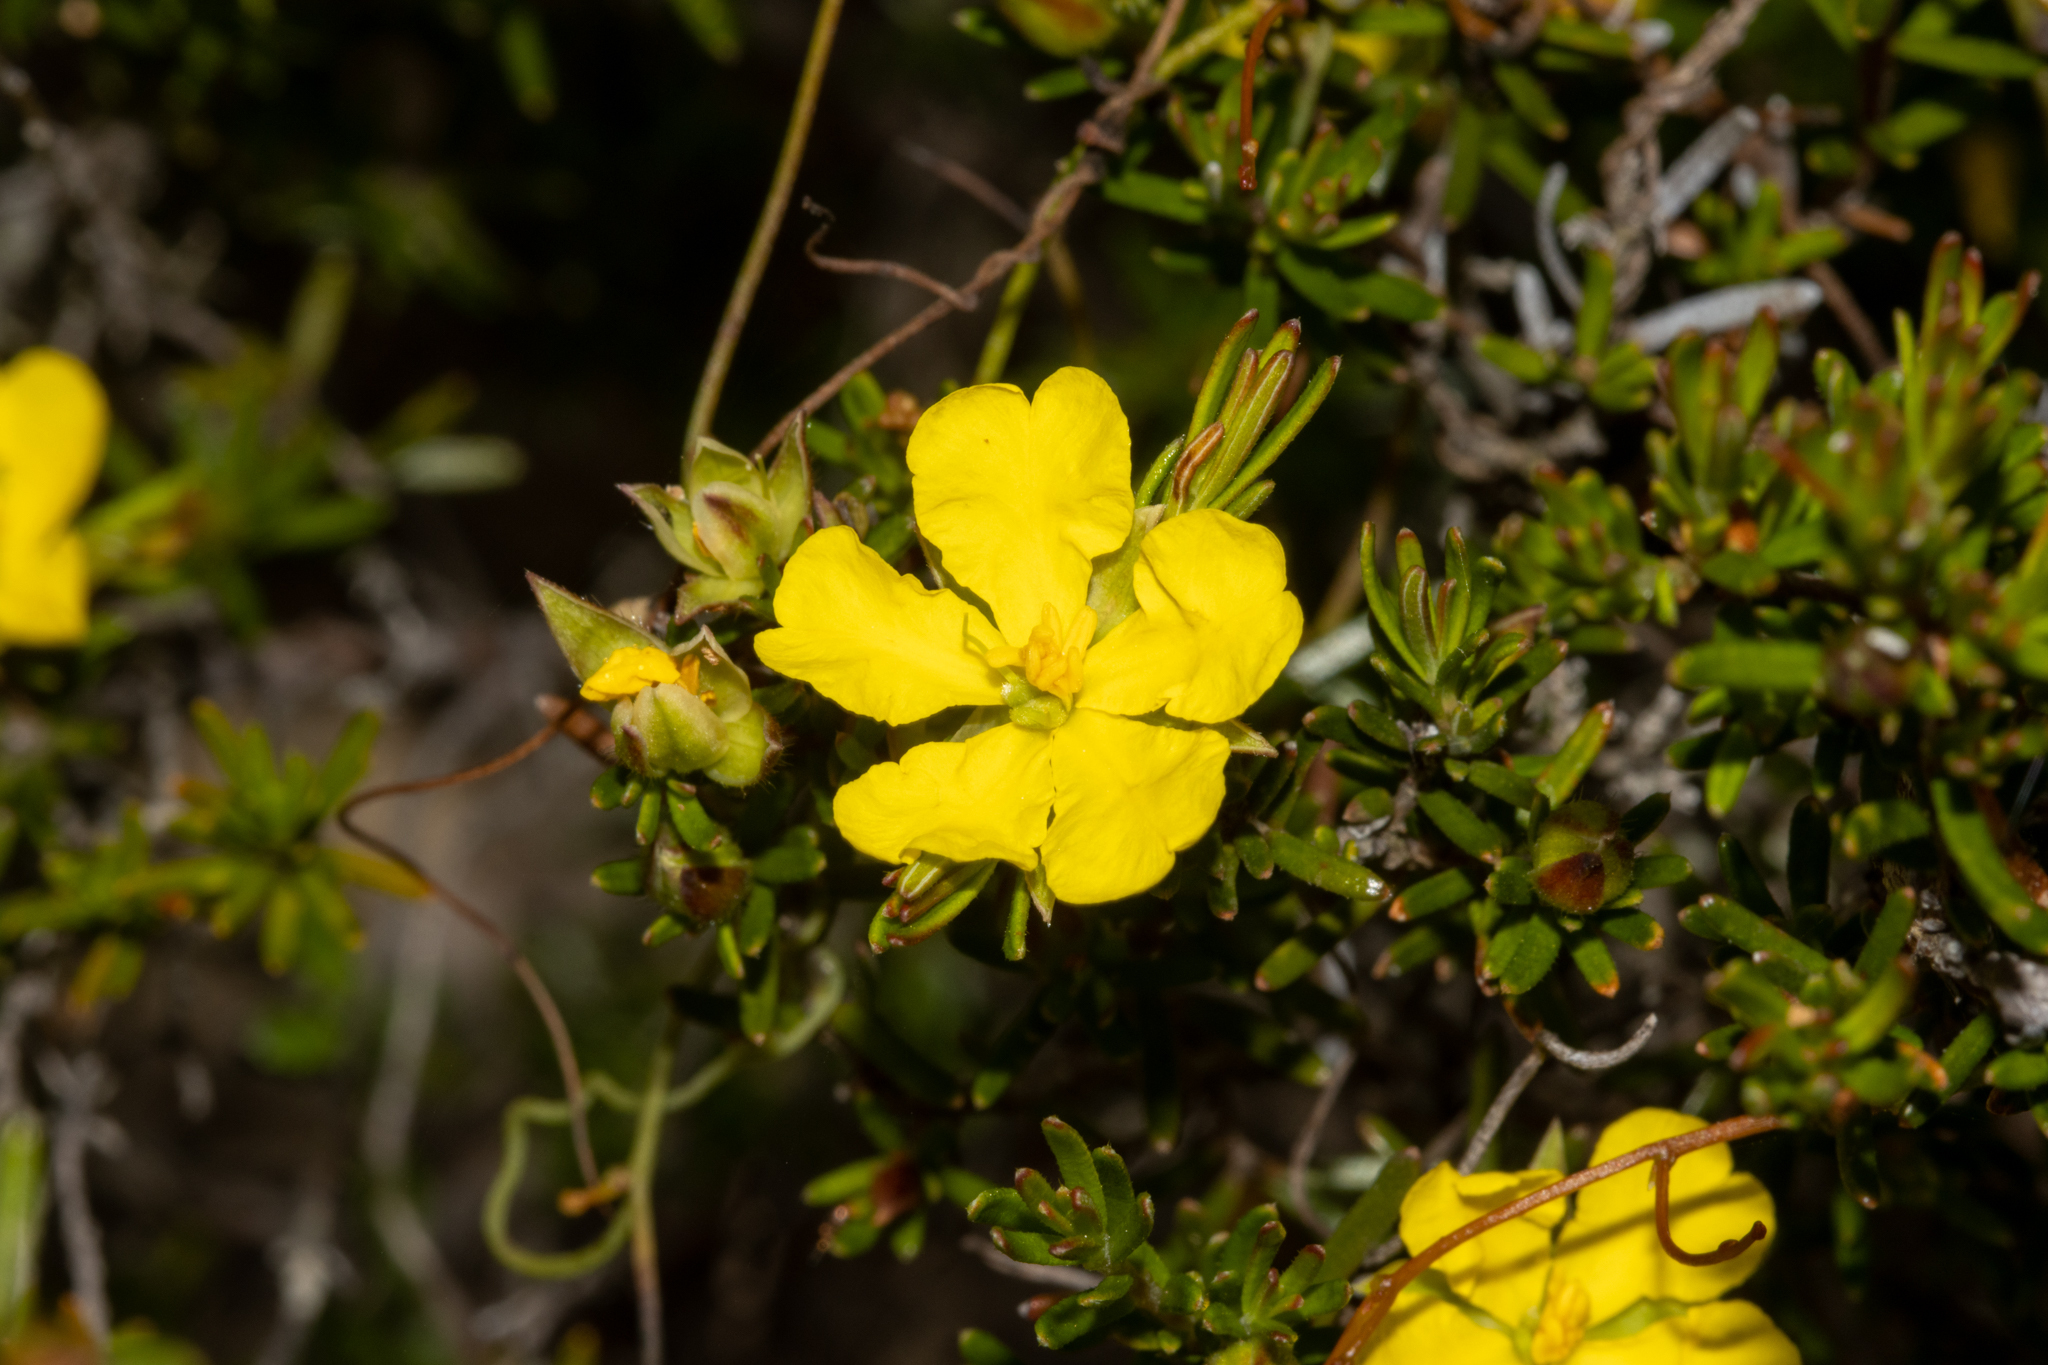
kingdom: Plantae
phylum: Tracheophyta
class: Magnoliopsida
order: Dilleniales
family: Dilleniaceae
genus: Hibbertia
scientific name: Hibbertia riparia
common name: Erect guinea-flower
